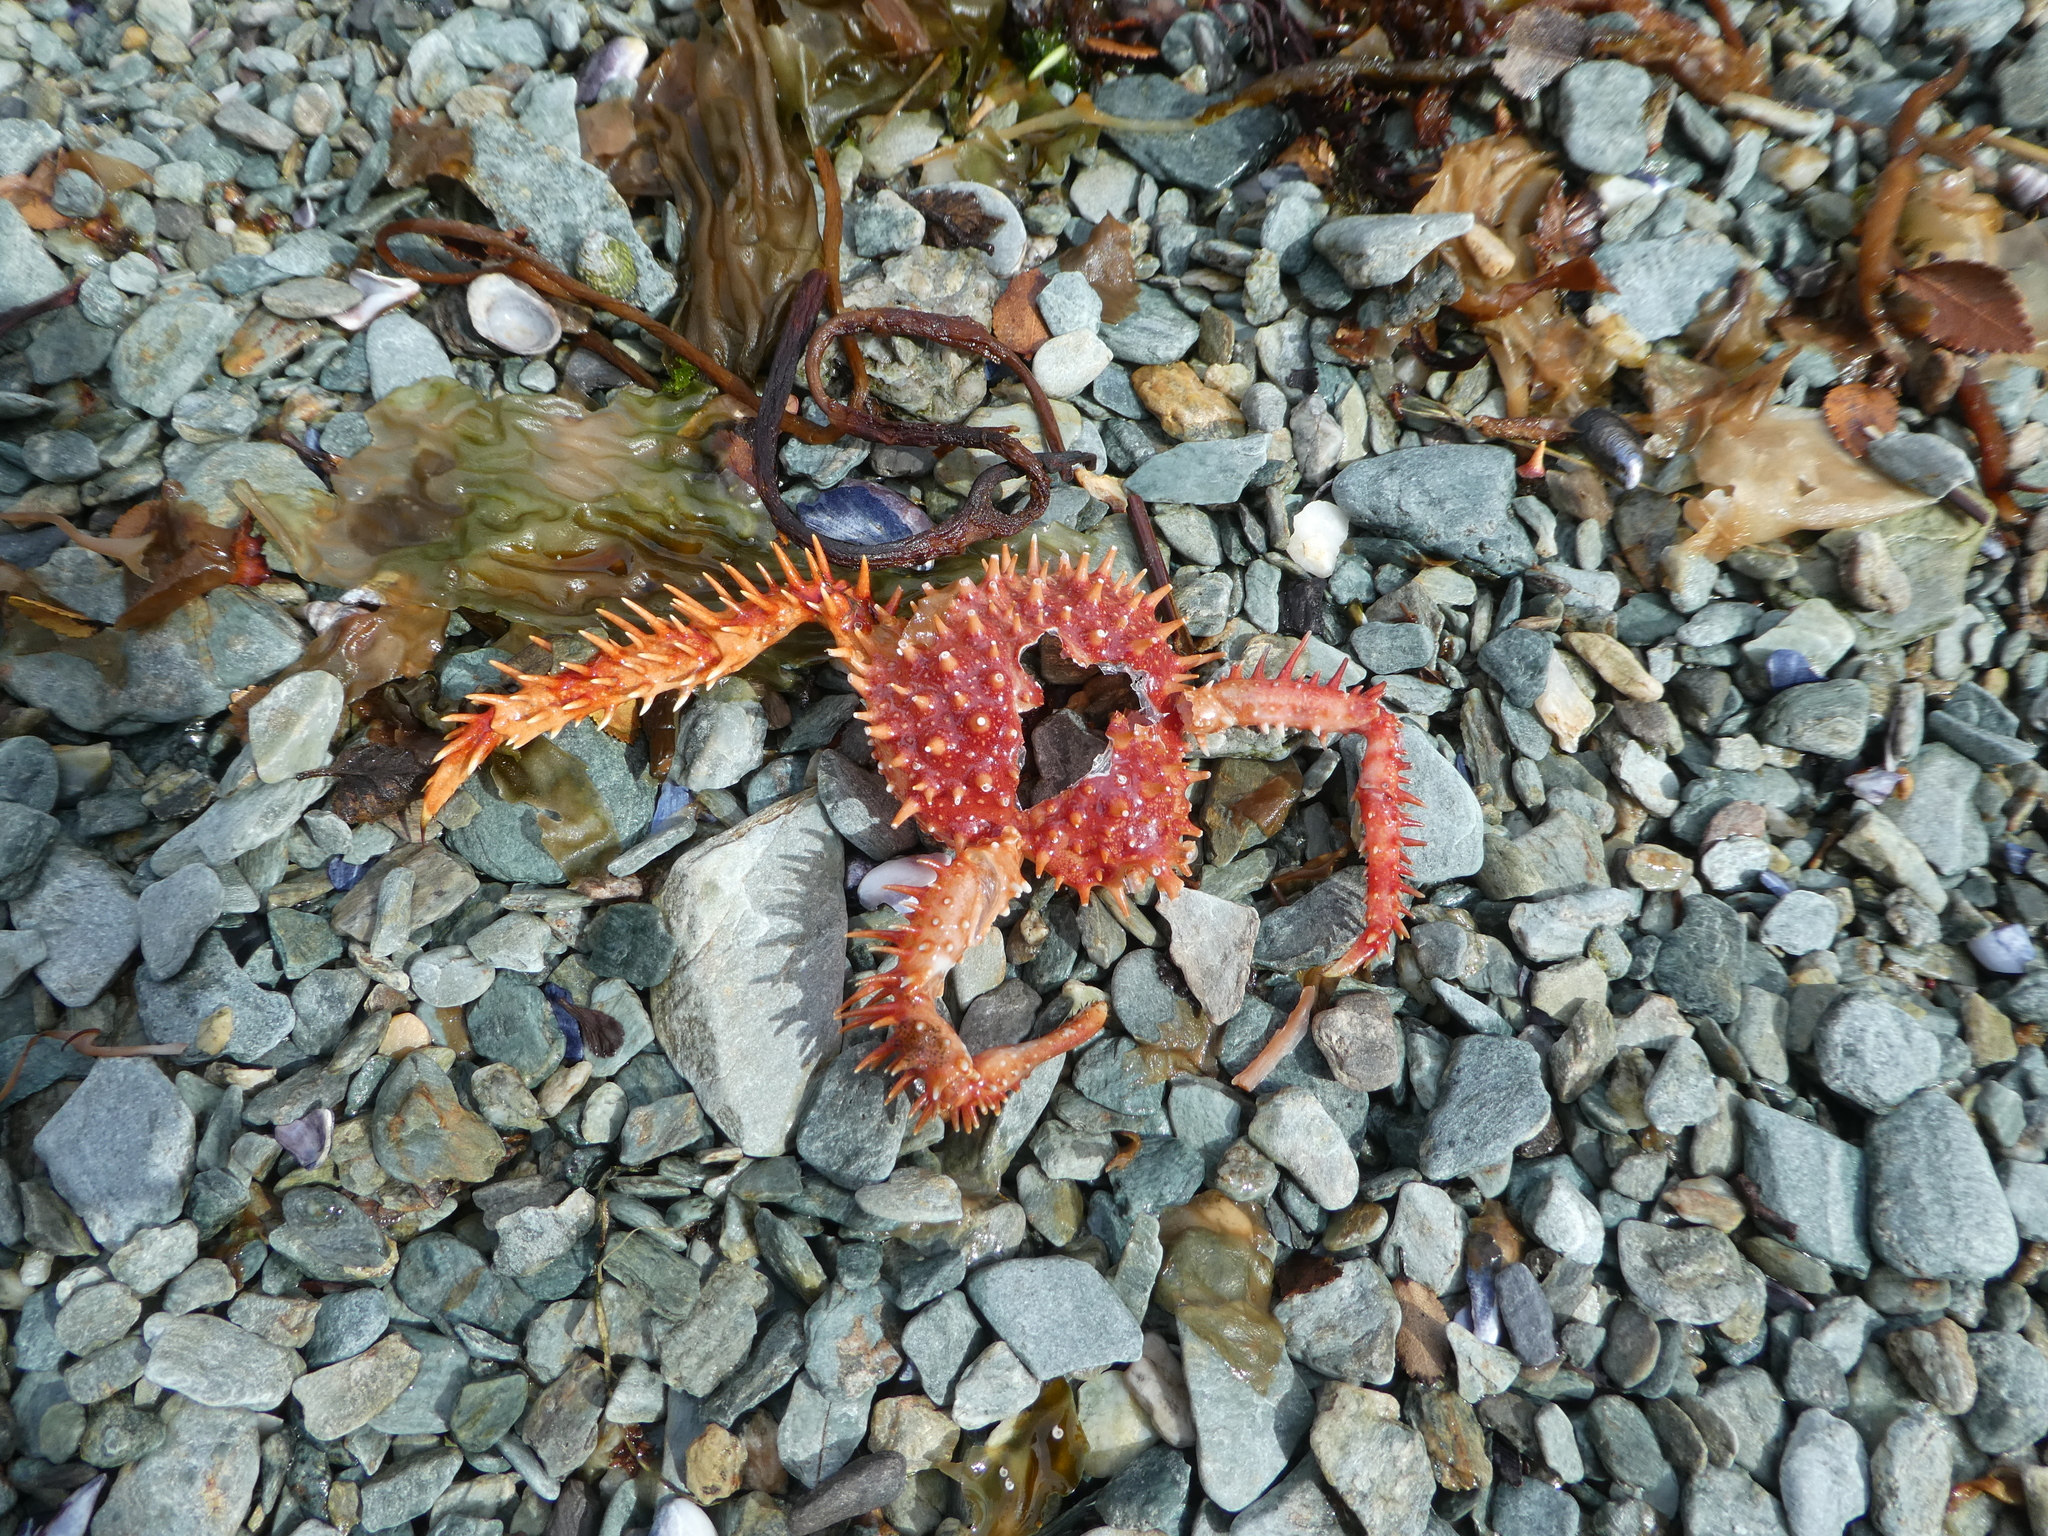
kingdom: Animalia
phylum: Arthropoda
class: Malacostraca
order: Decapoda
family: Lithodidae
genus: Lithodes
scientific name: Lithodes santolla
